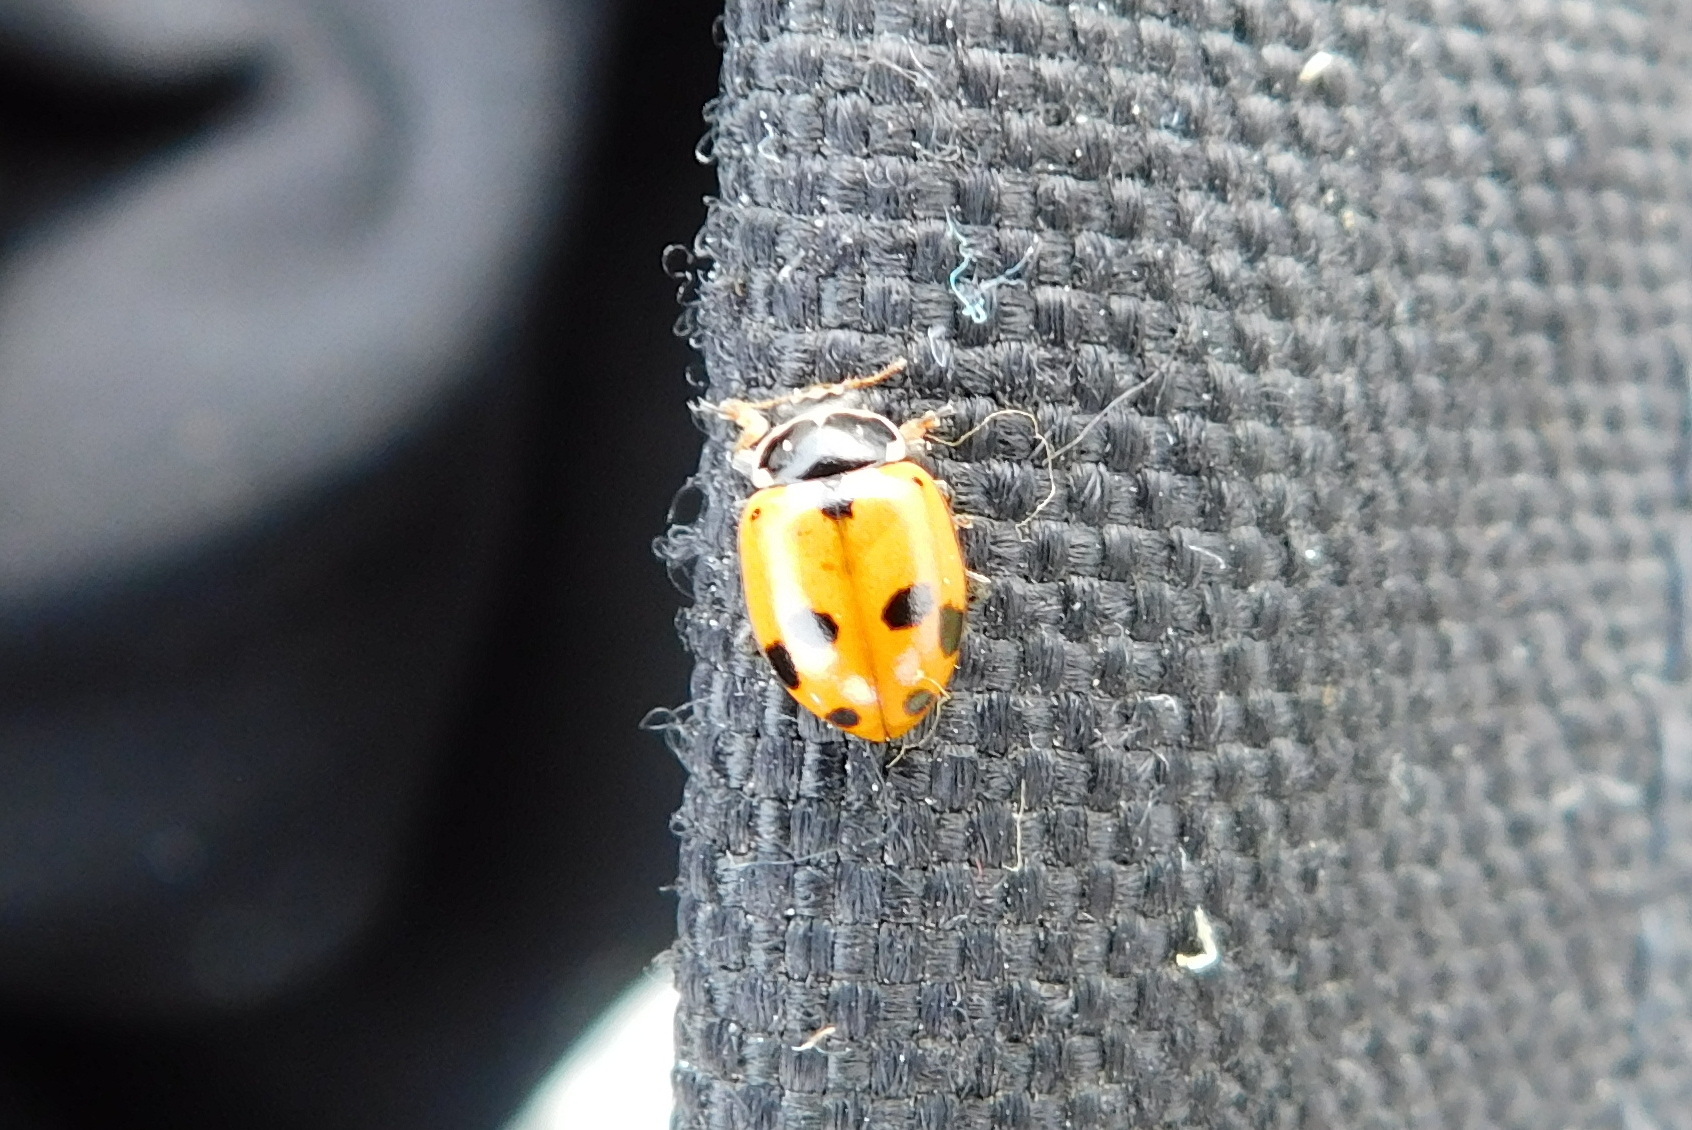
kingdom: Animalia
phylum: Arthropoda
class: Insecta
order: Coleoptera
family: Coccinellidae
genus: Hippodamia
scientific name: Hippodamia variegata
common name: Ladybird beetle
